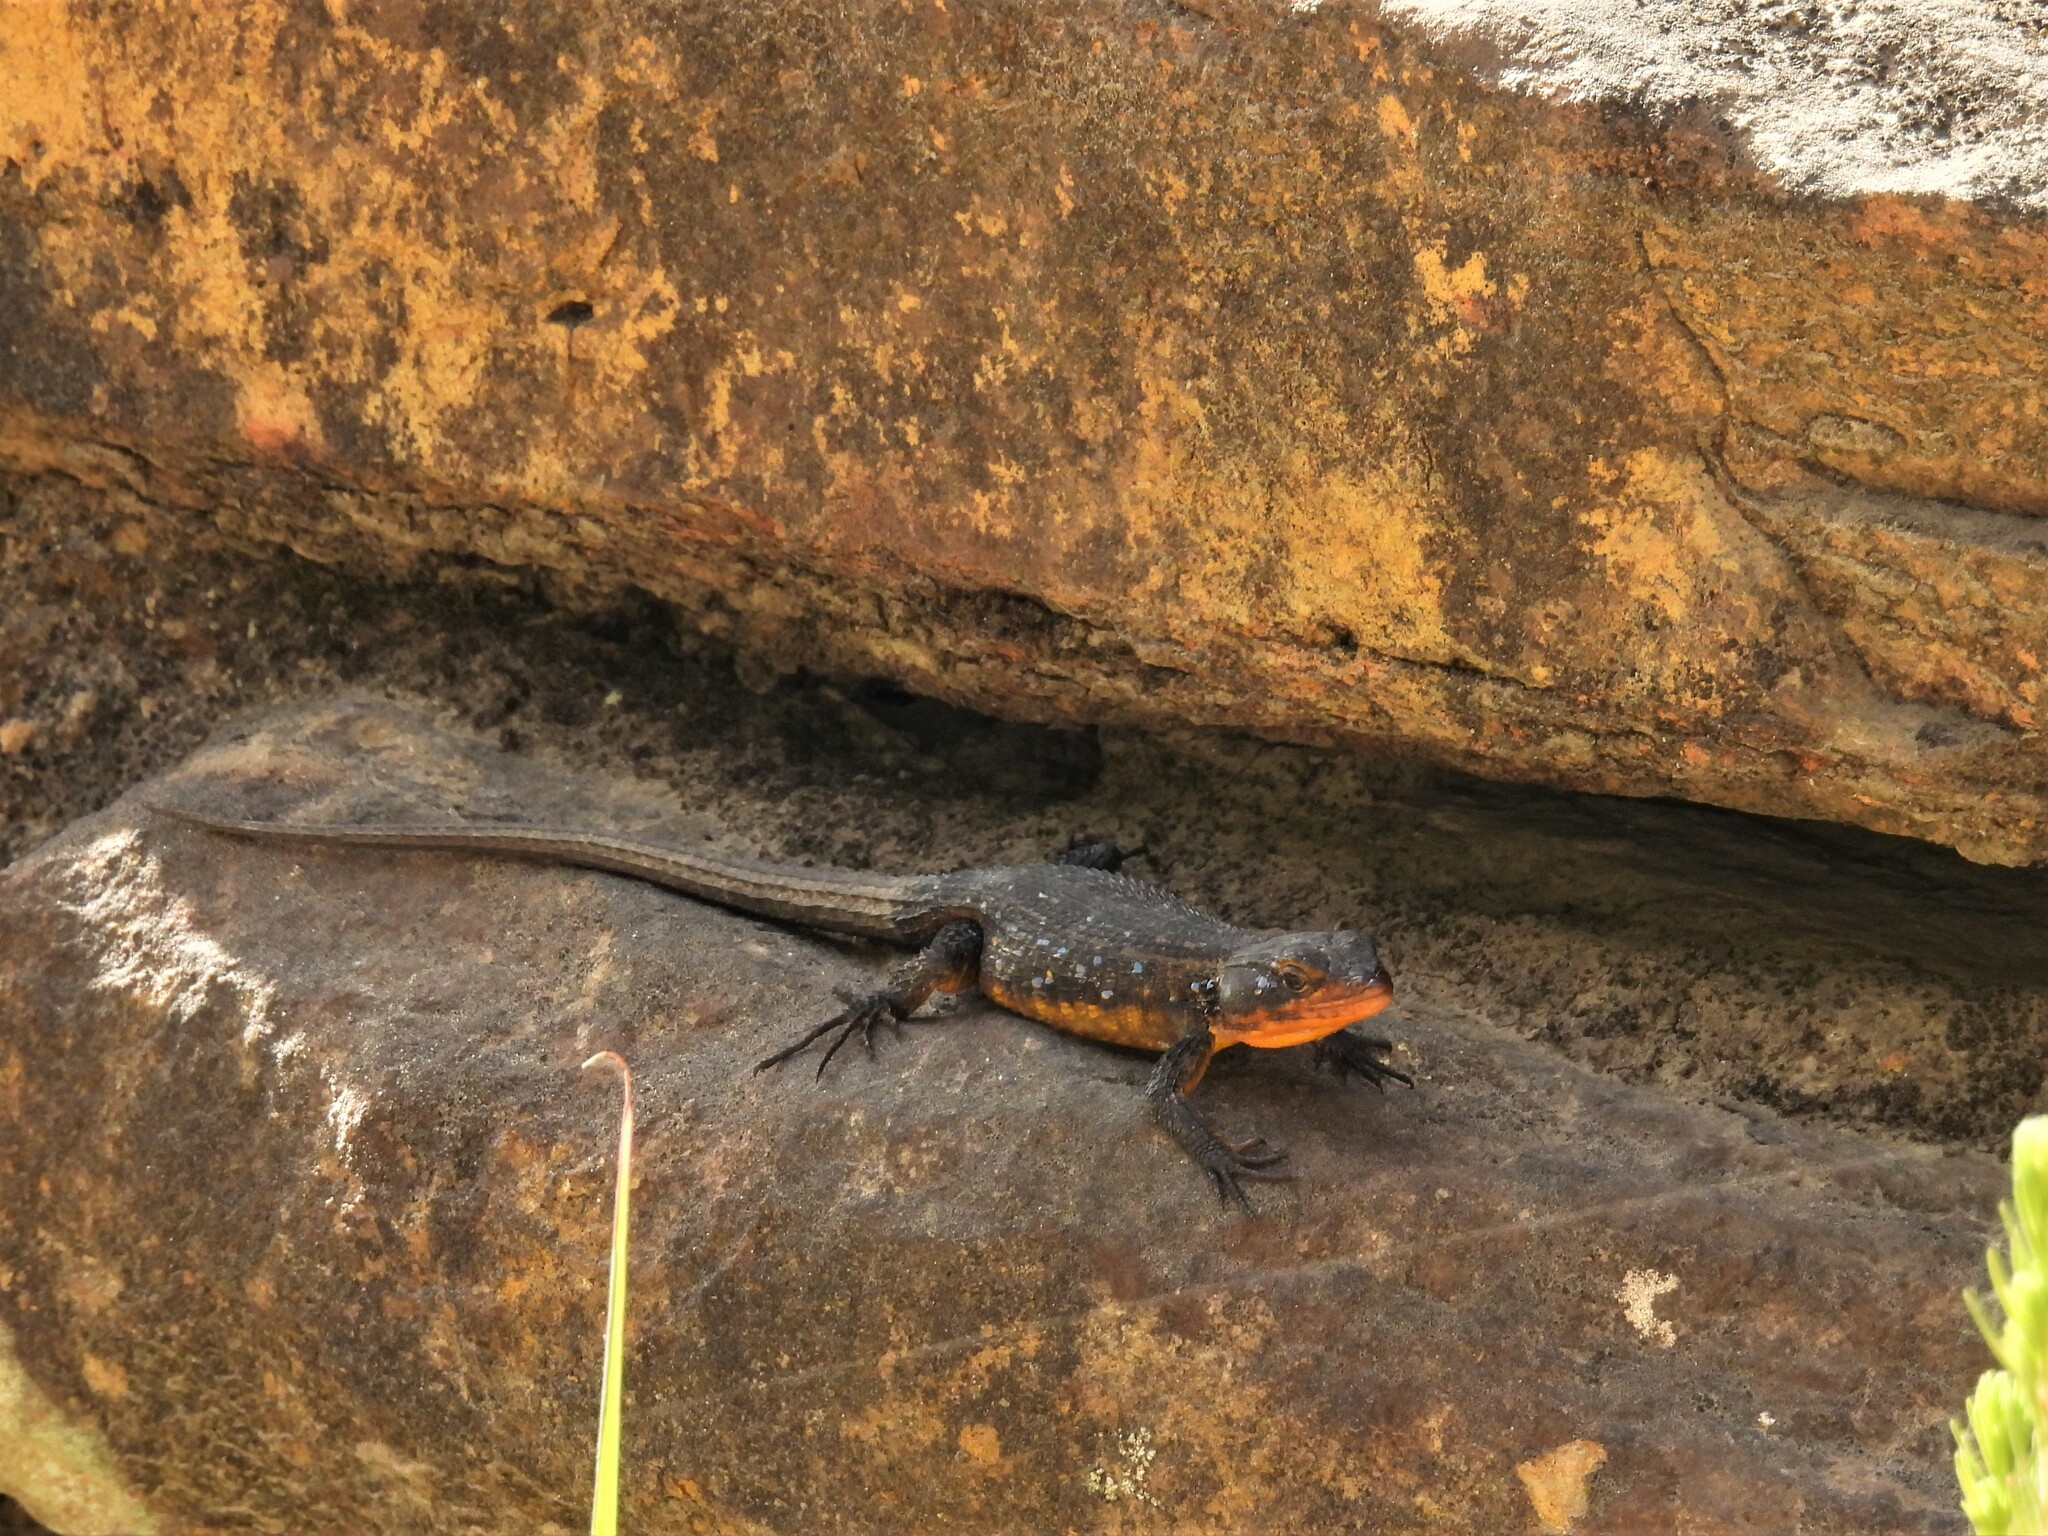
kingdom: Animalia
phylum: Chordata
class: Squamata
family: Cordylidae
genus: Ninurta
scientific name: Ninurta coeruleopunctatus
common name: Blue-spotted girdled lizard
